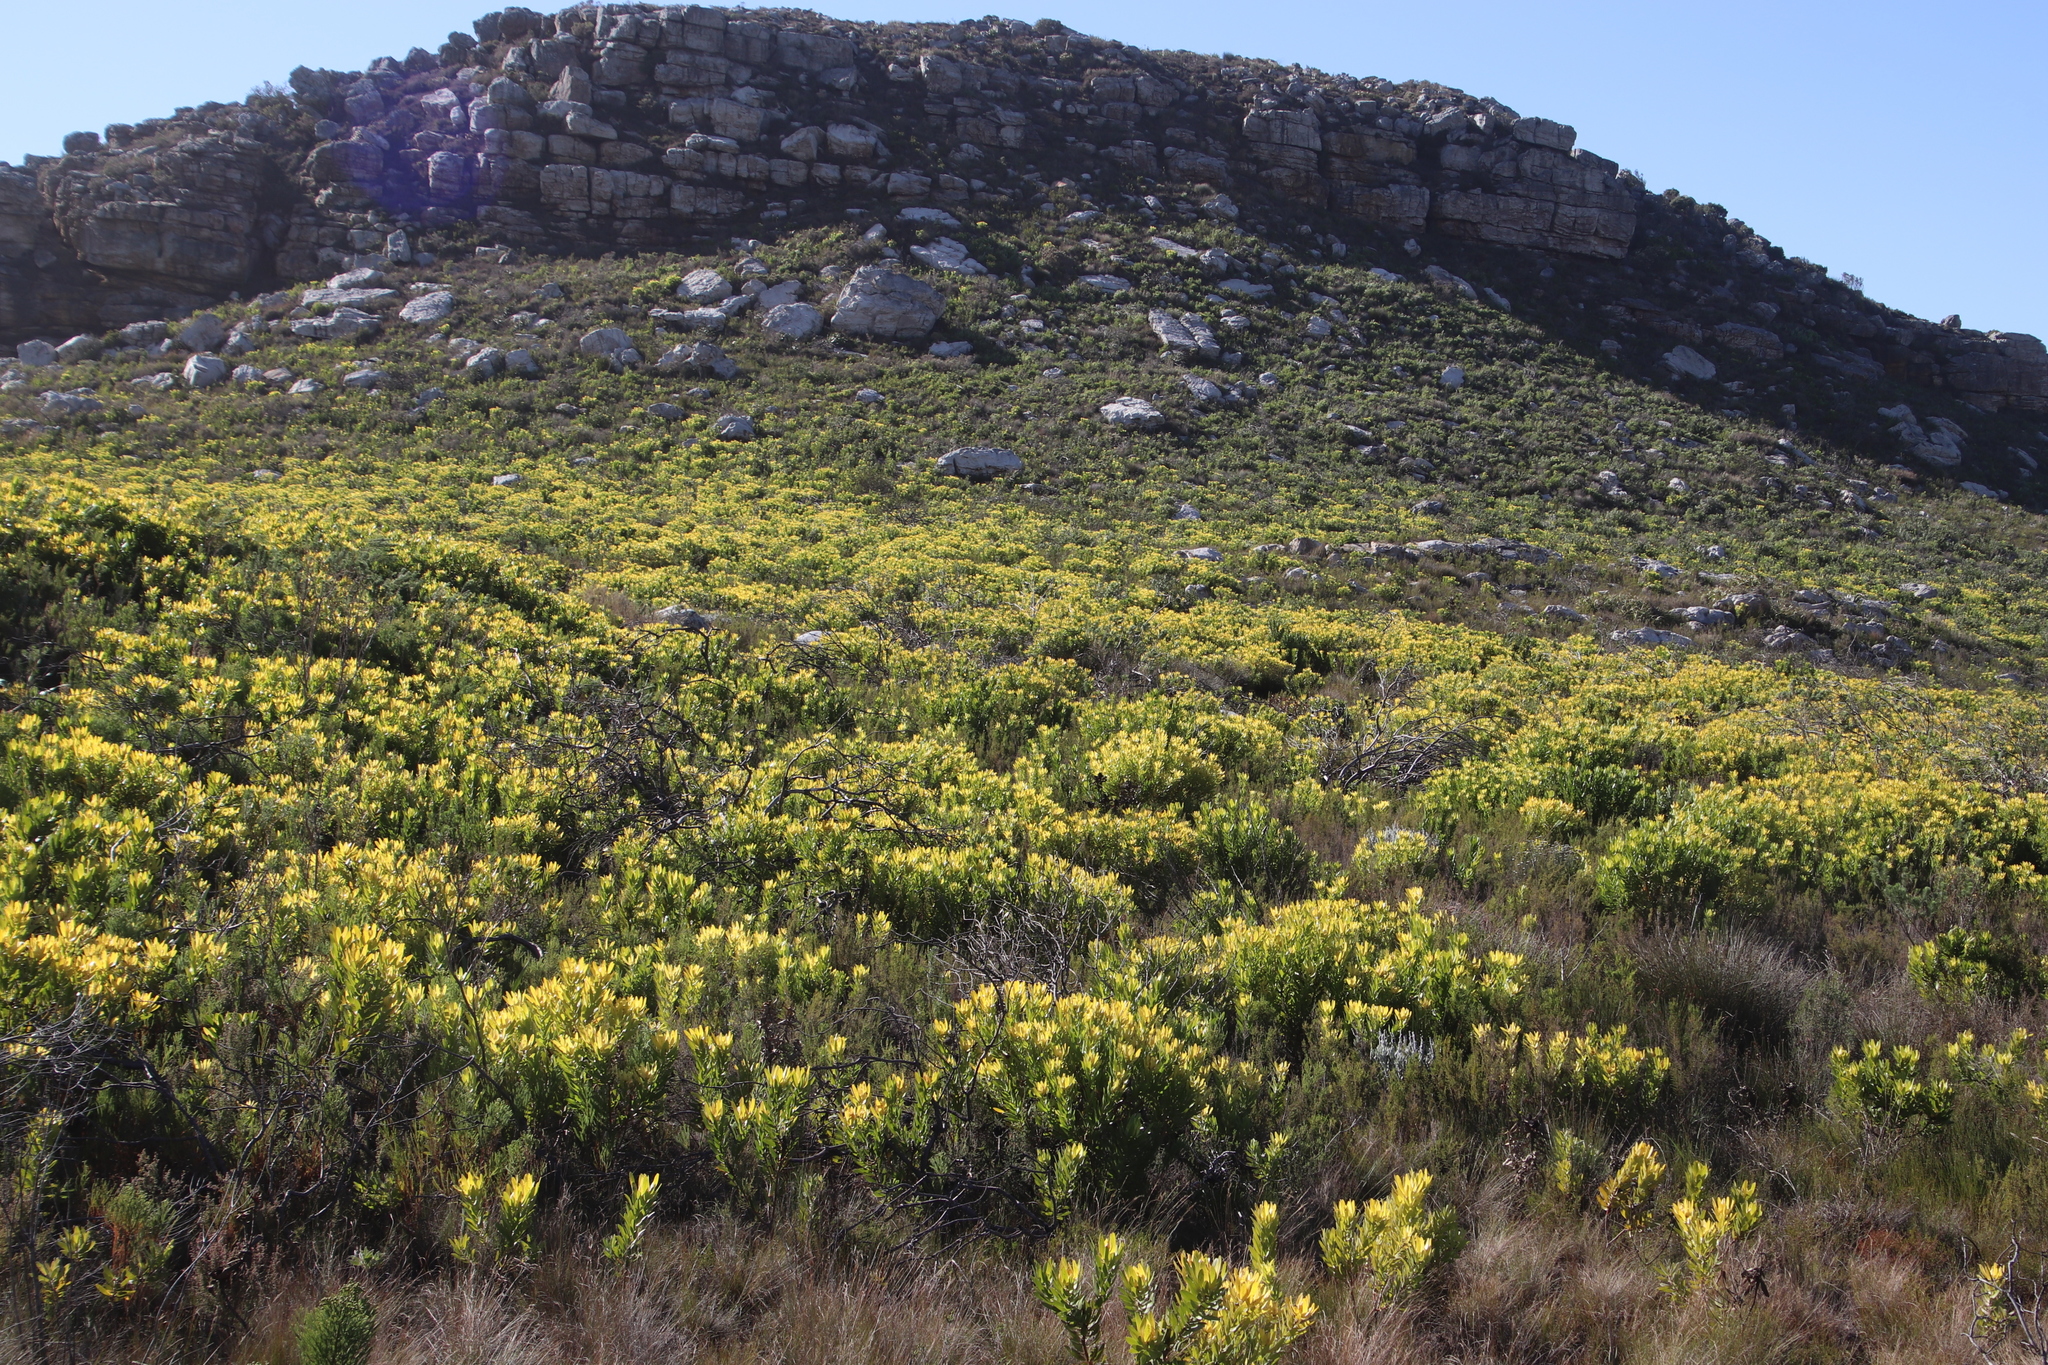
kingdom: Plantae
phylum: Tracheophyta
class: Magnoliopsida
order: Proteales
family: Proteaceae
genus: Leucadendron
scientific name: Leucadendron laureolum
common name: Golden sunshinebush
